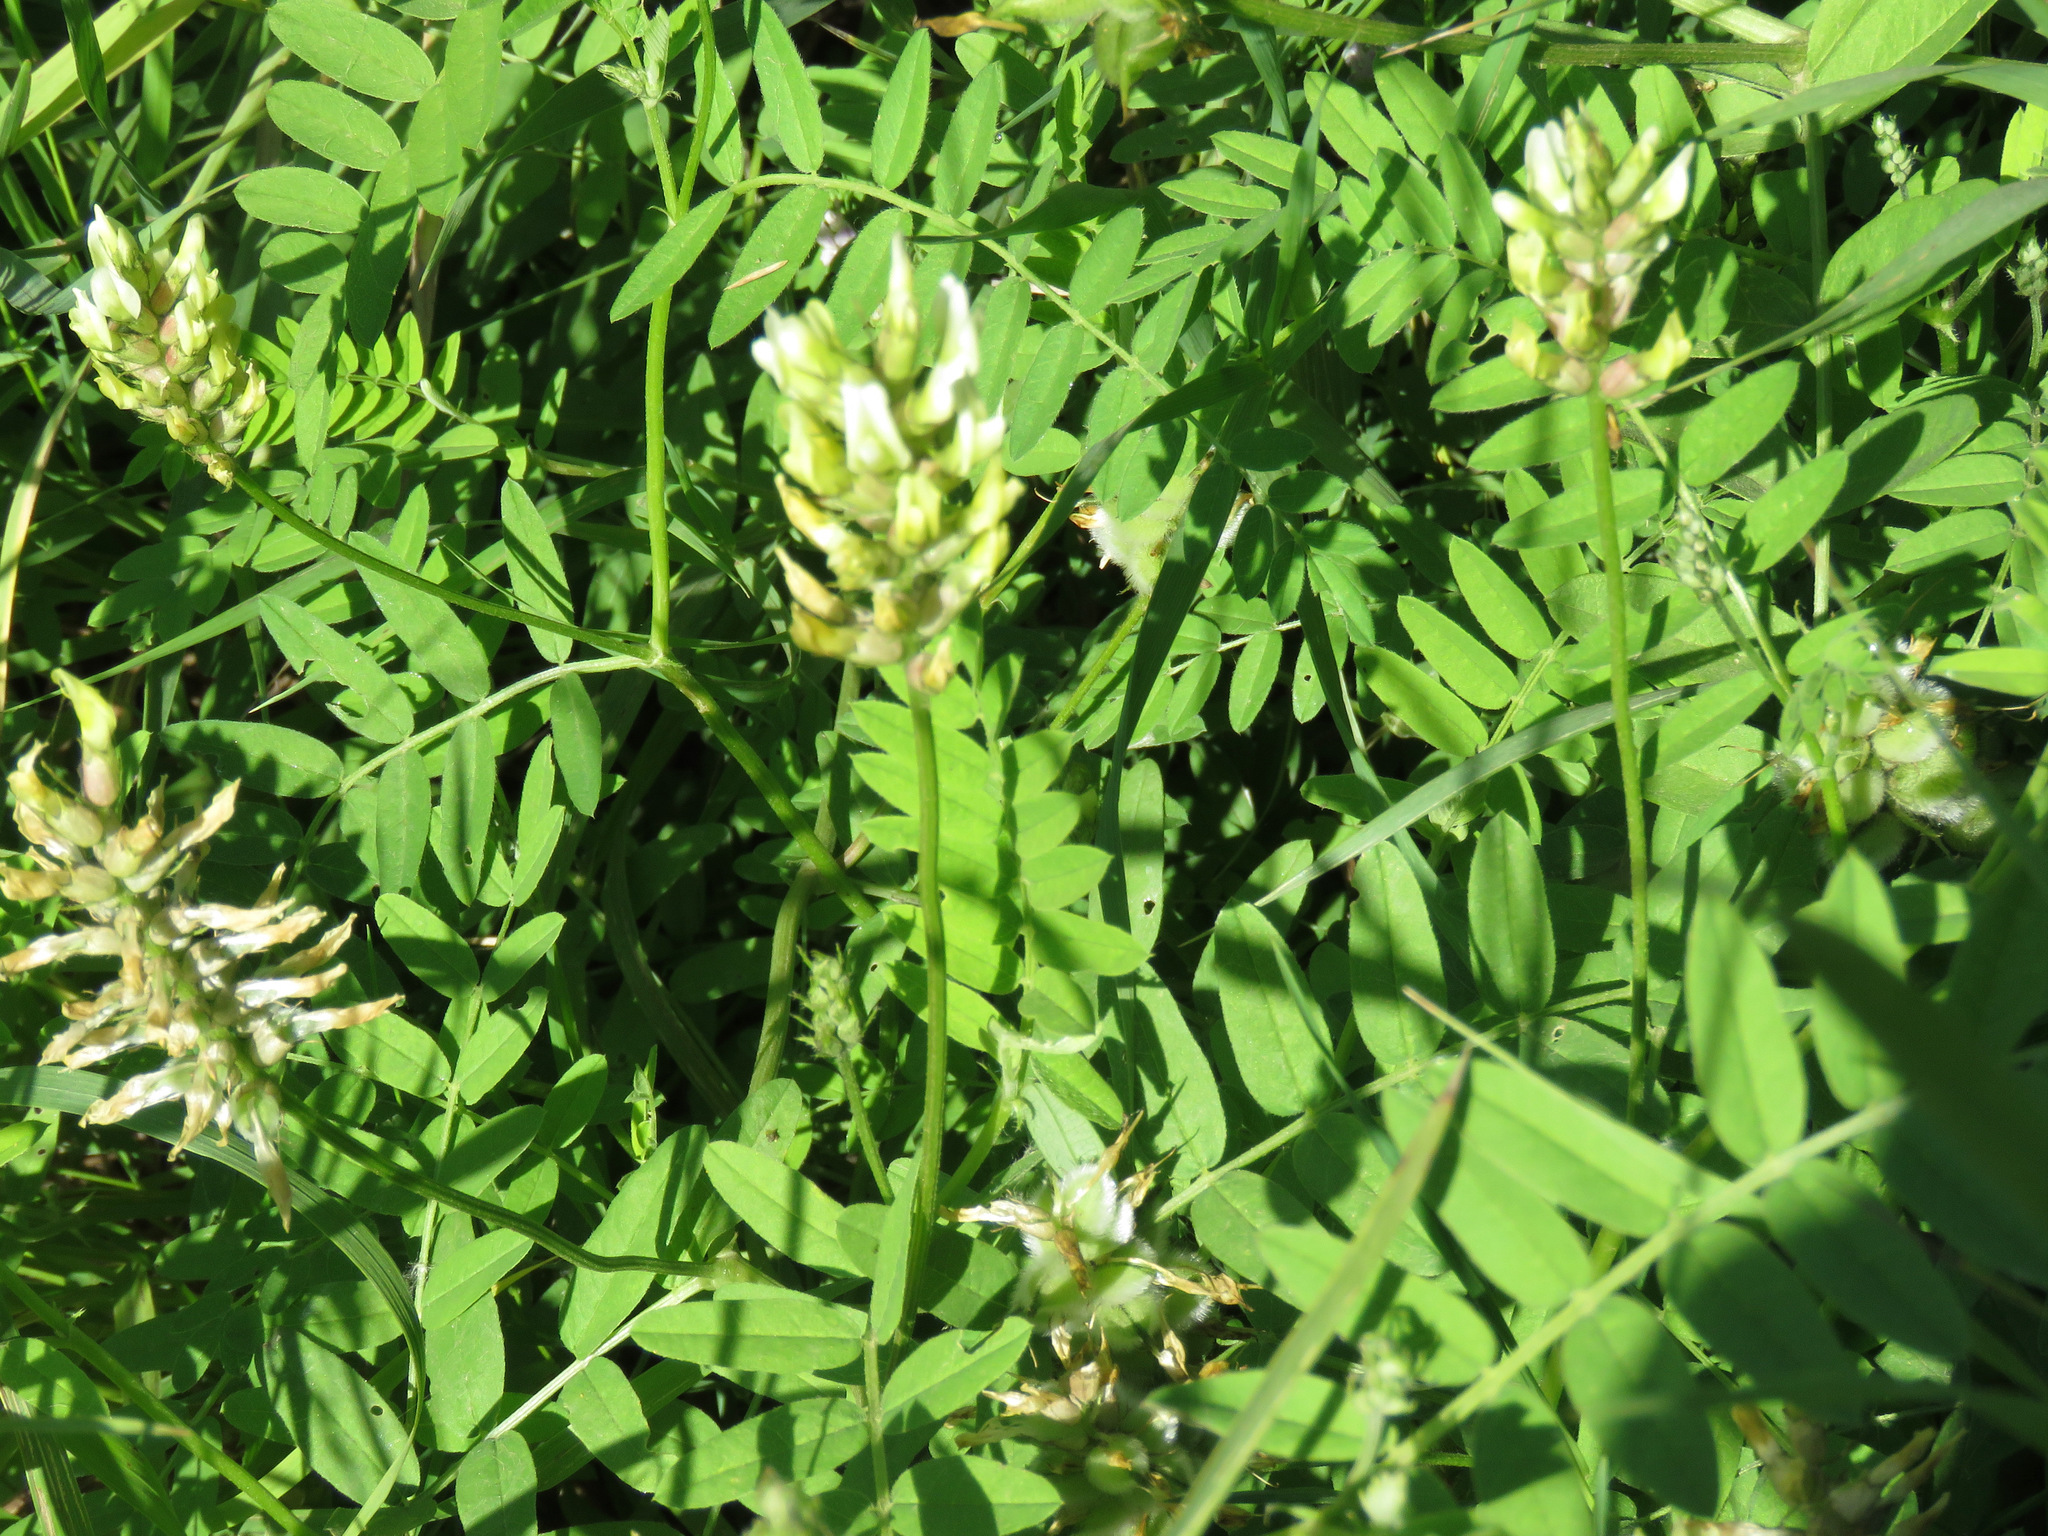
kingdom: Plantae
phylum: Tracheophyta
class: Magnoliopsida
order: Fabales
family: Fabaceae
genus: Astragalus
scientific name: Astragalus cicer
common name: Chick-pea milk-vetch
